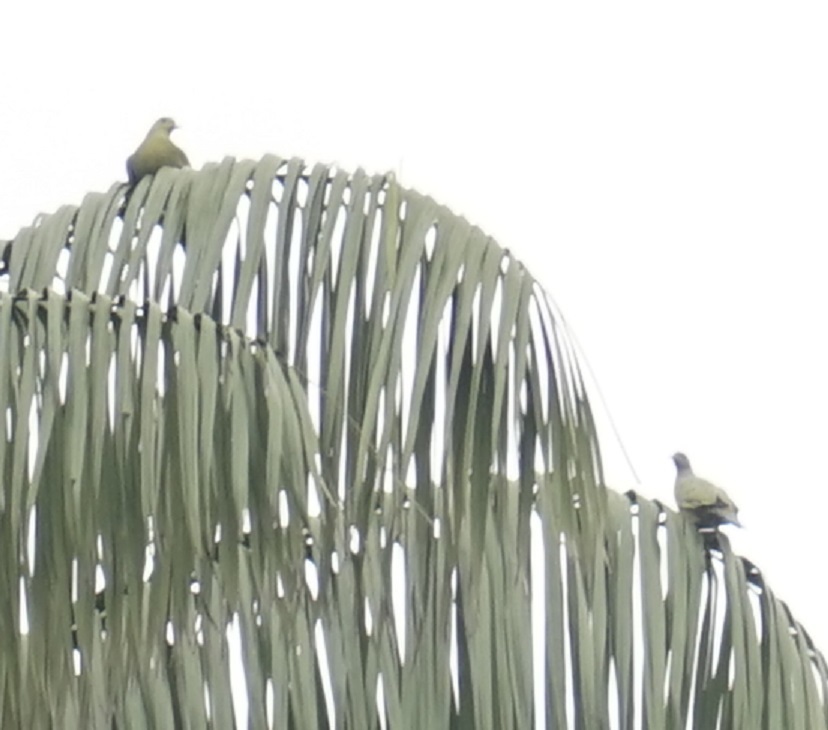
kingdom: Animalia
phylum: Chordata
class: Aves
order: Columbiformes
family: Columbidae
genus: Treron
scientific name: Treron vernans
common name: Pink-necked green pigeon
